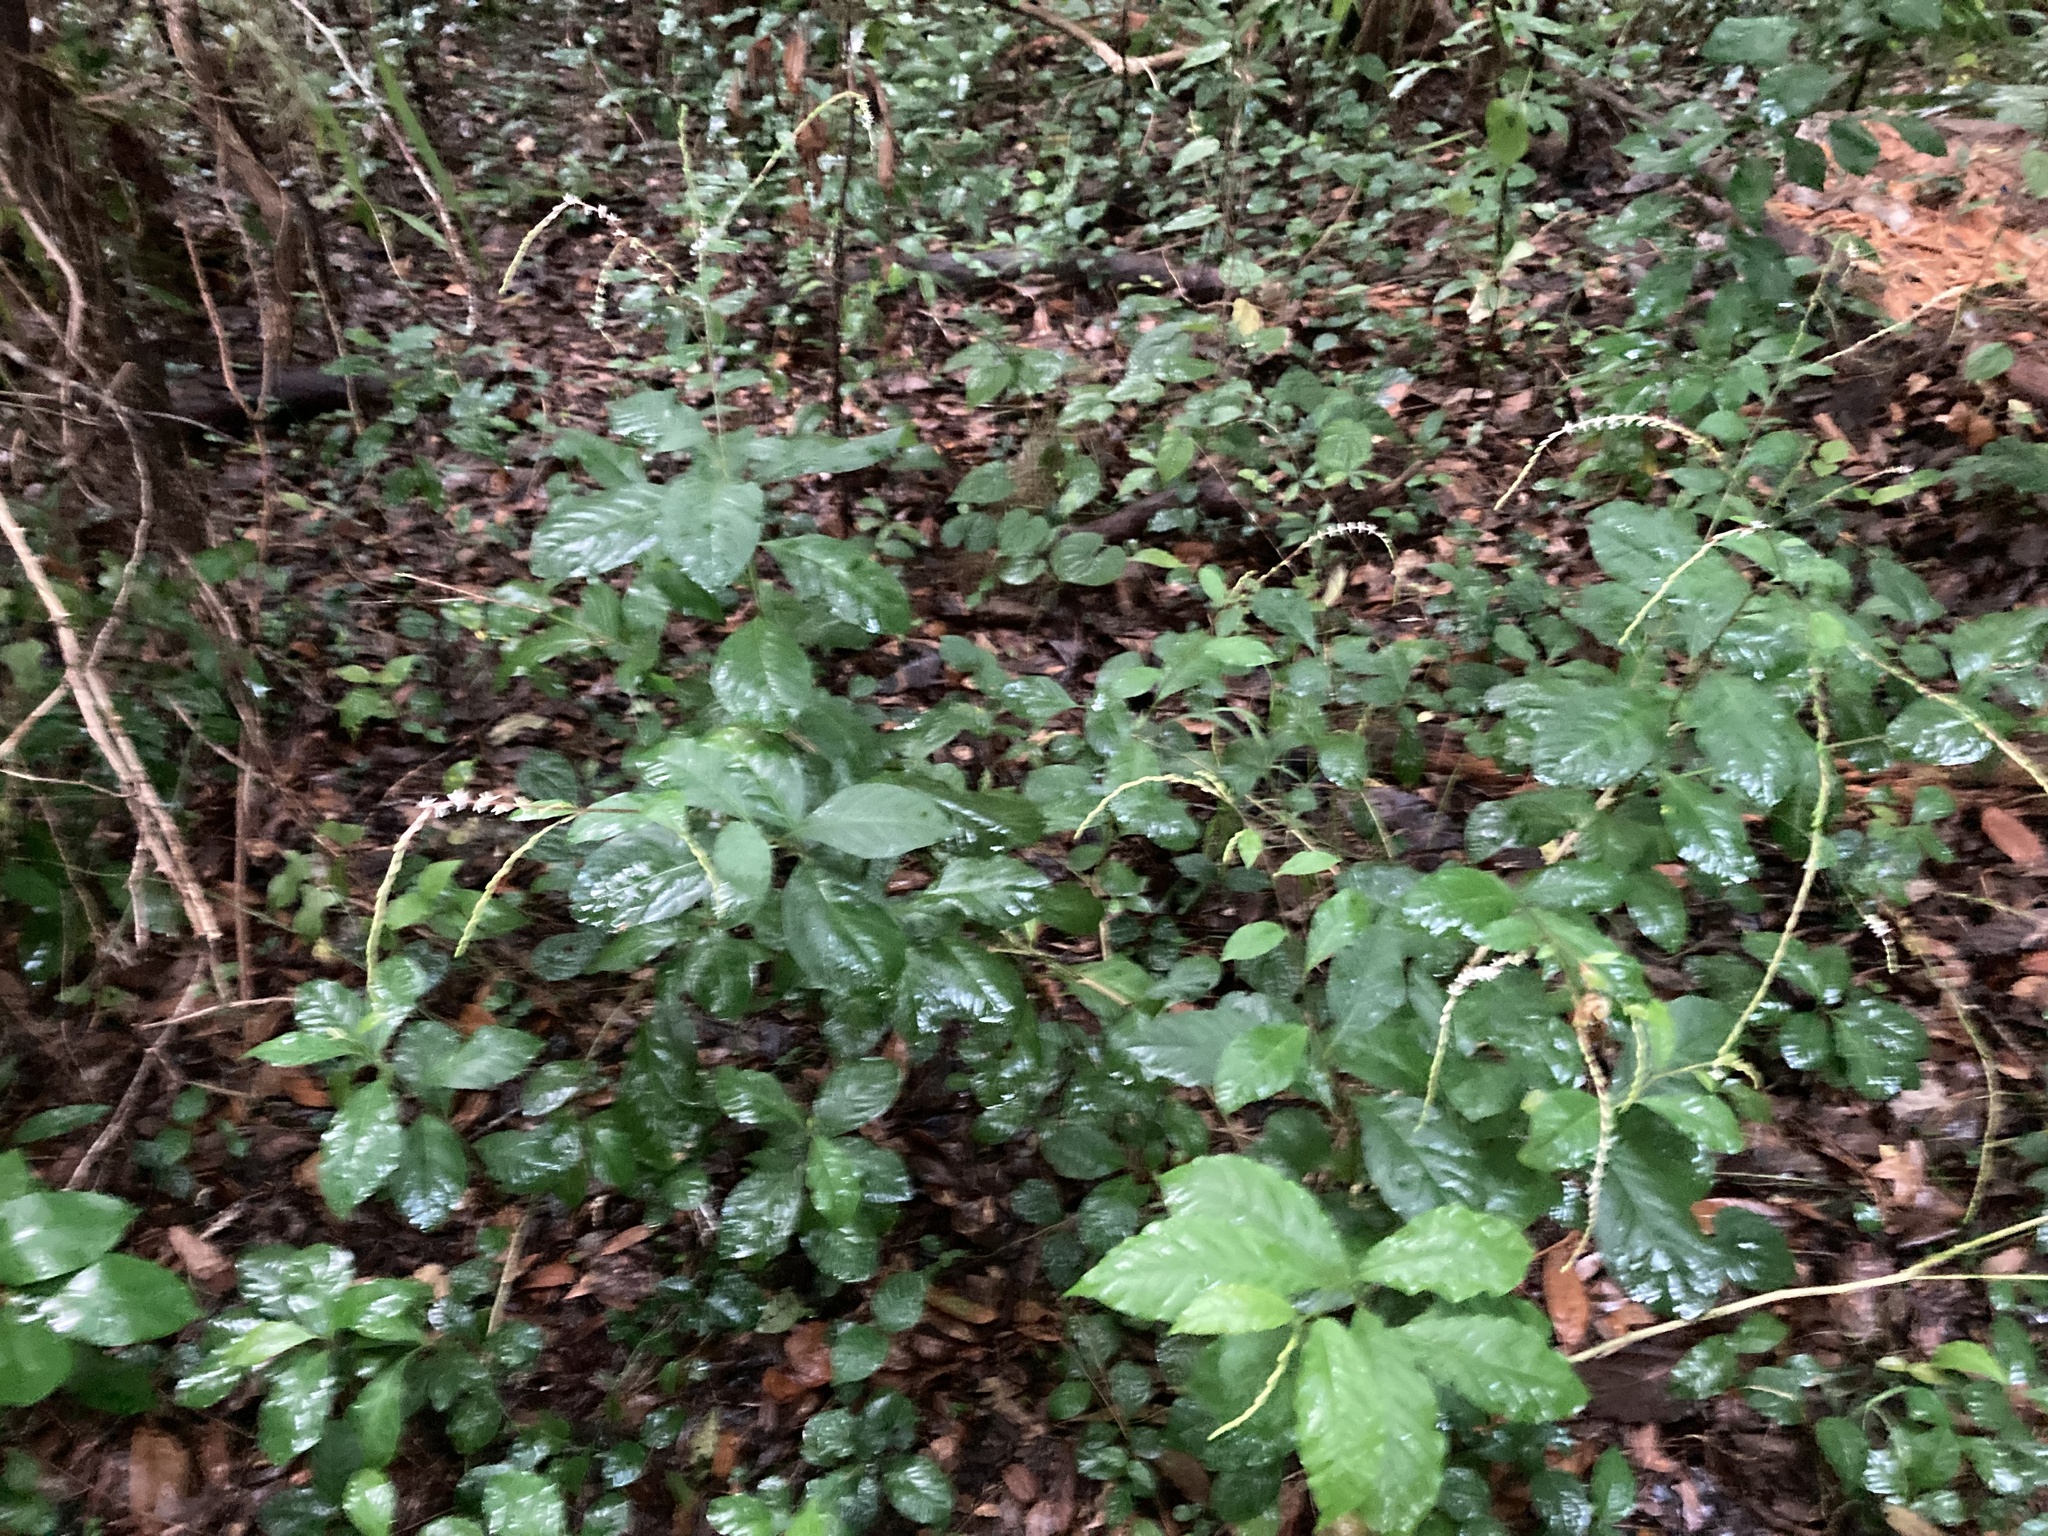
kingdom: Plantae
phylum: Tracheophyta
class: Magnoliopsida
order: Caryophyllales
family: Phytolaccaceae
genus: Petiveria
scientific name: Petiveria alliacea
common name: Garlicweed
